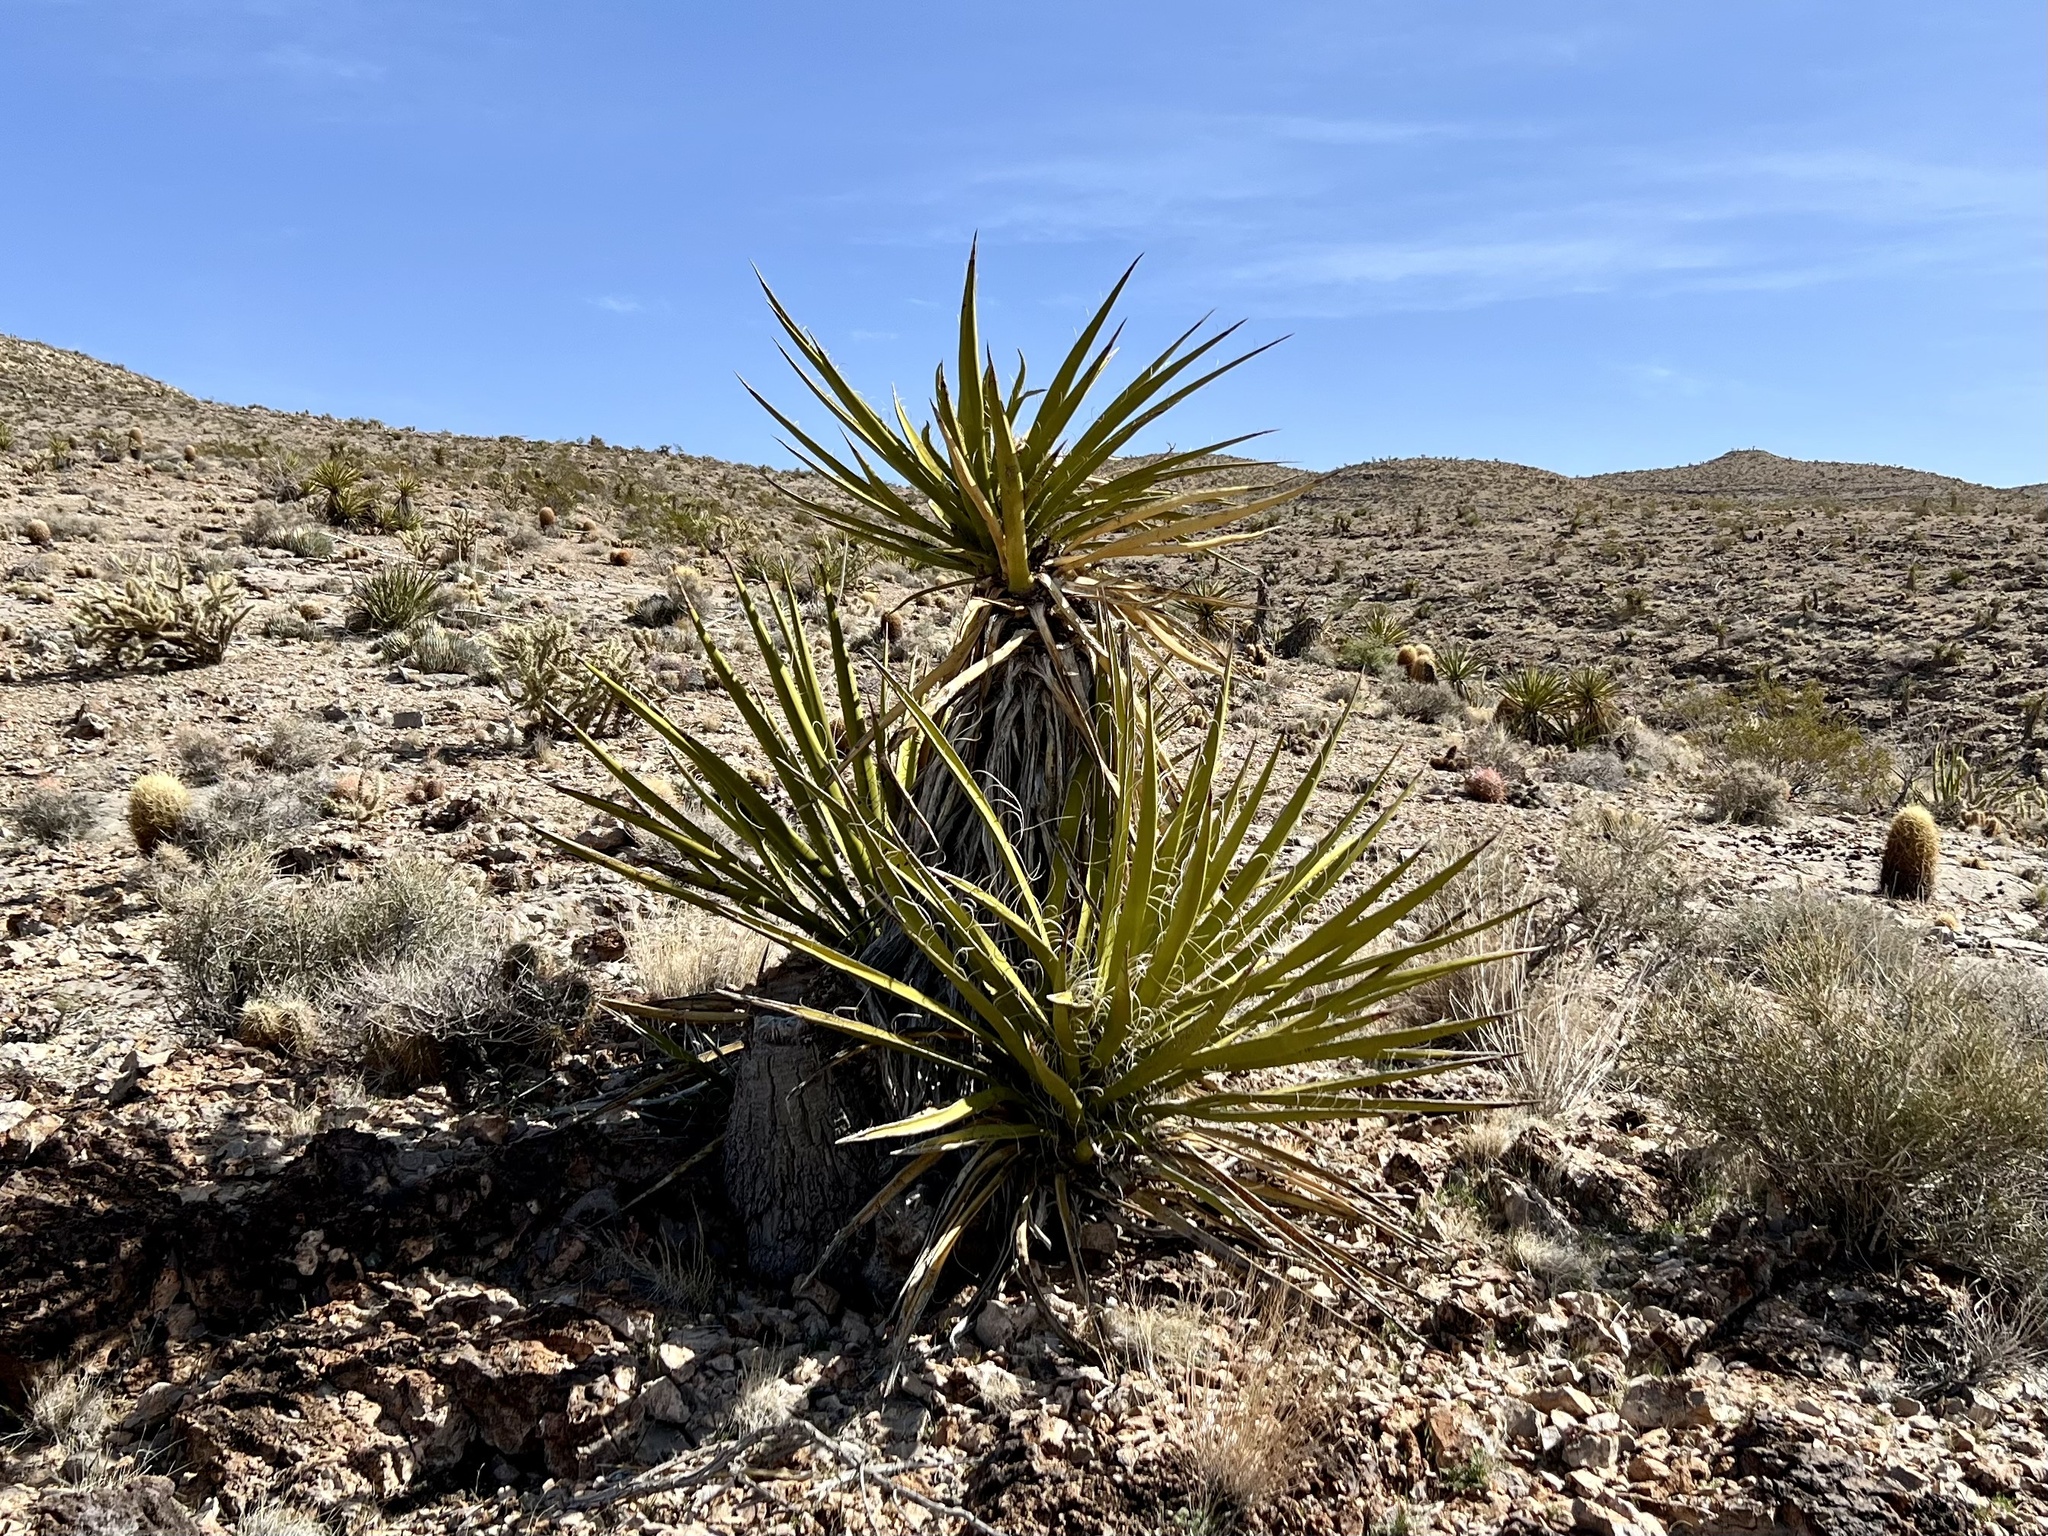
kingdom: Plantae
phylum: Tracheophyta
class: Liliopsida
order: Asparagales
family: Asparagaceae
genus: Yucca
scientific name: Yucca schidigera
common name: Mojave yucca
